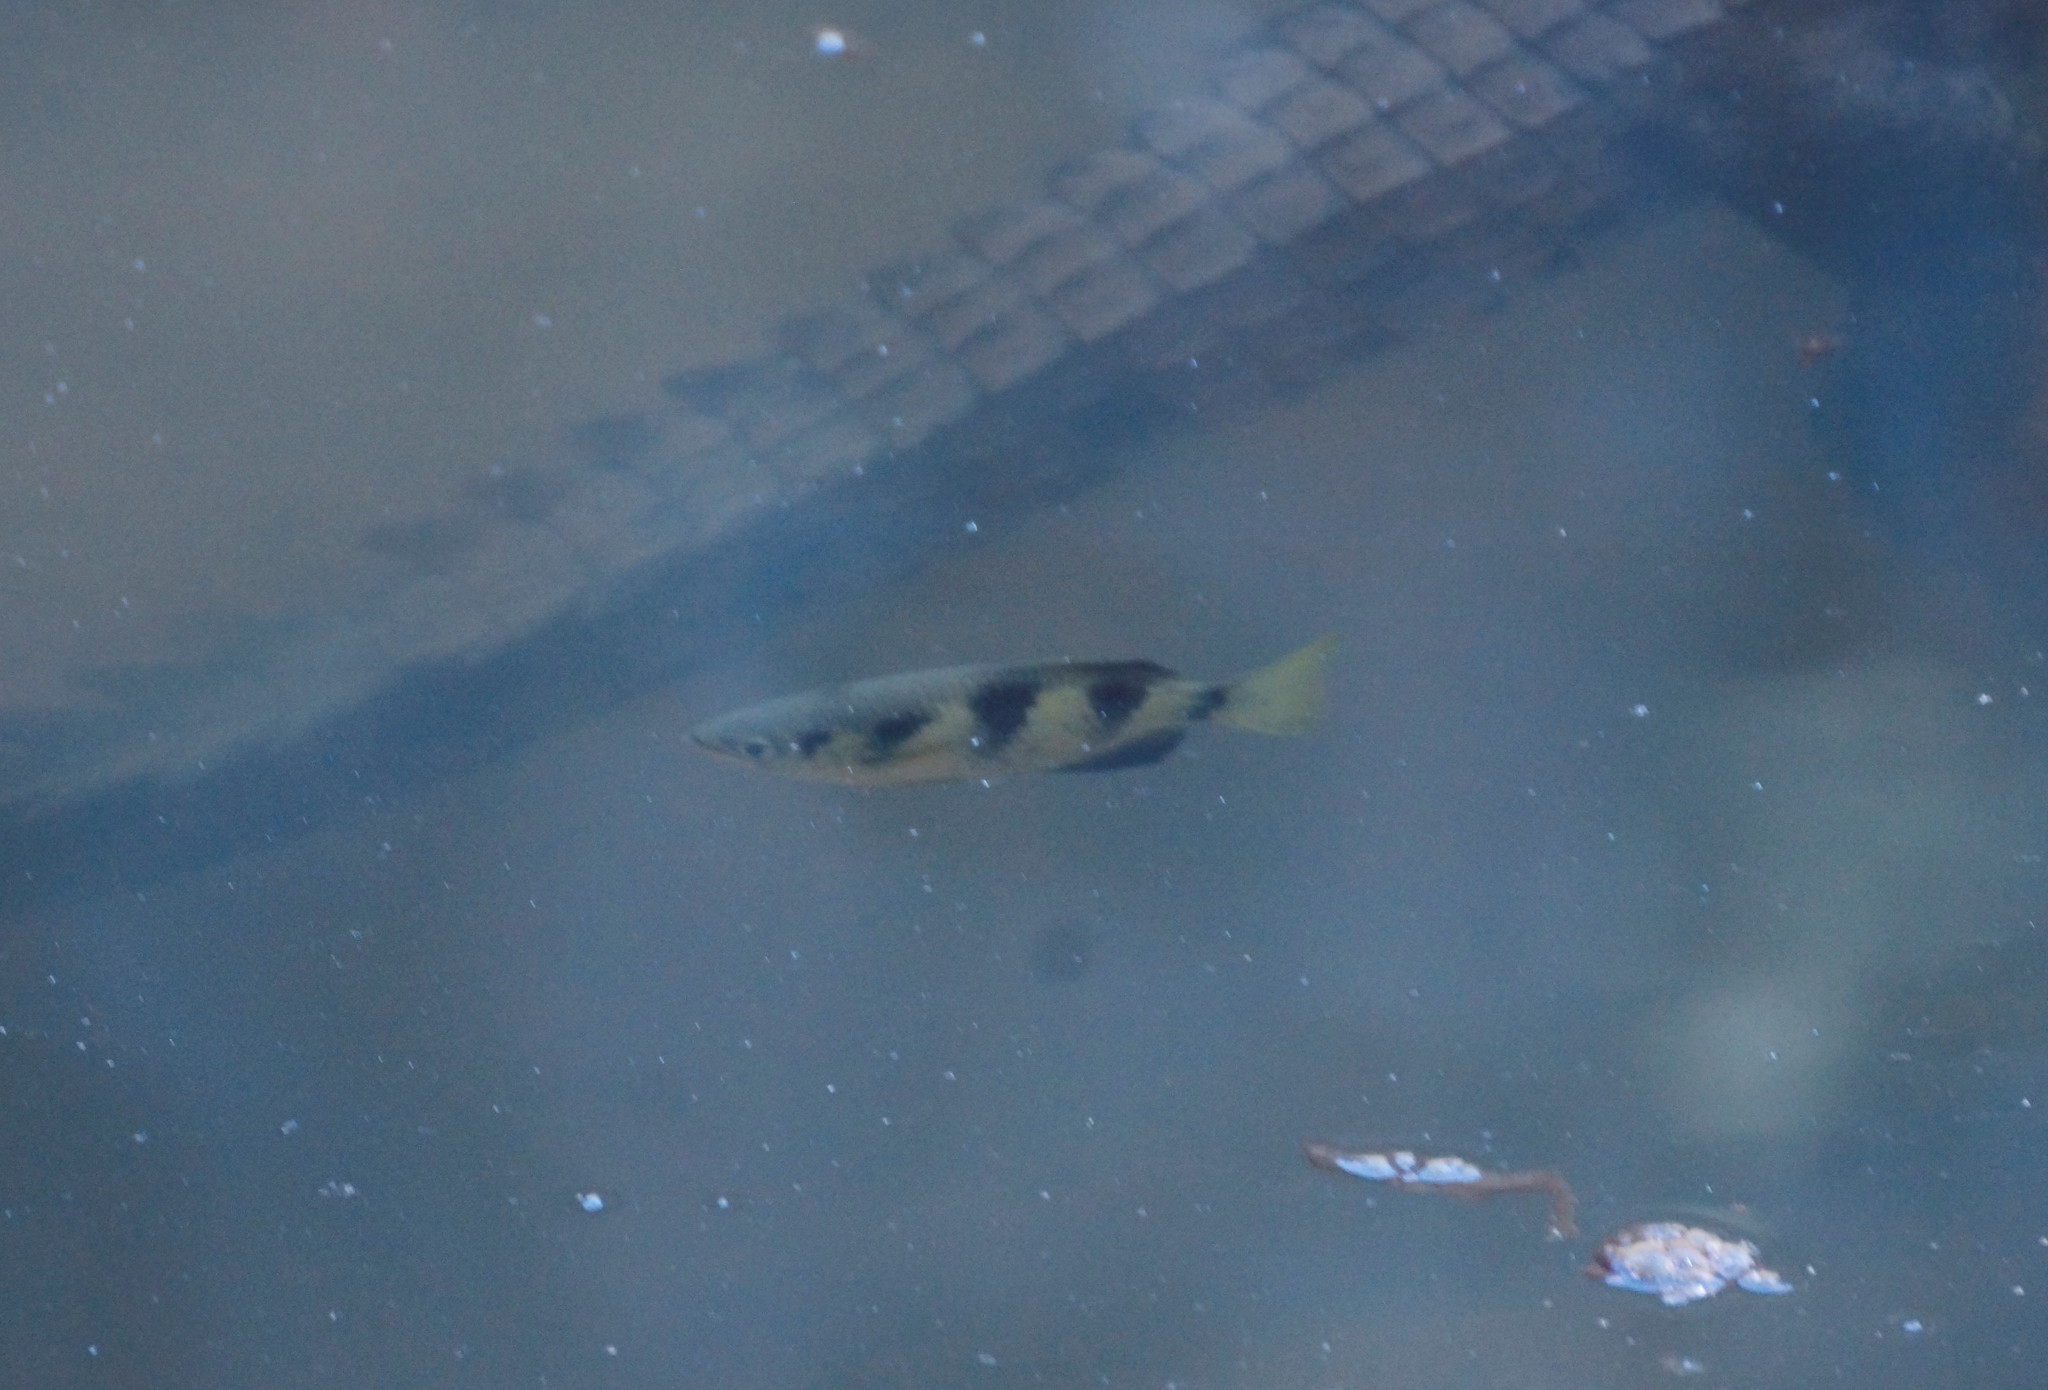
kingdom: Animalia
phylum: Chordata
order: Perciformes
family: Toxotidae
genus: Toxotes
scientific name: Toxotes kimberleyensis
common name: Kimberley archerfish
